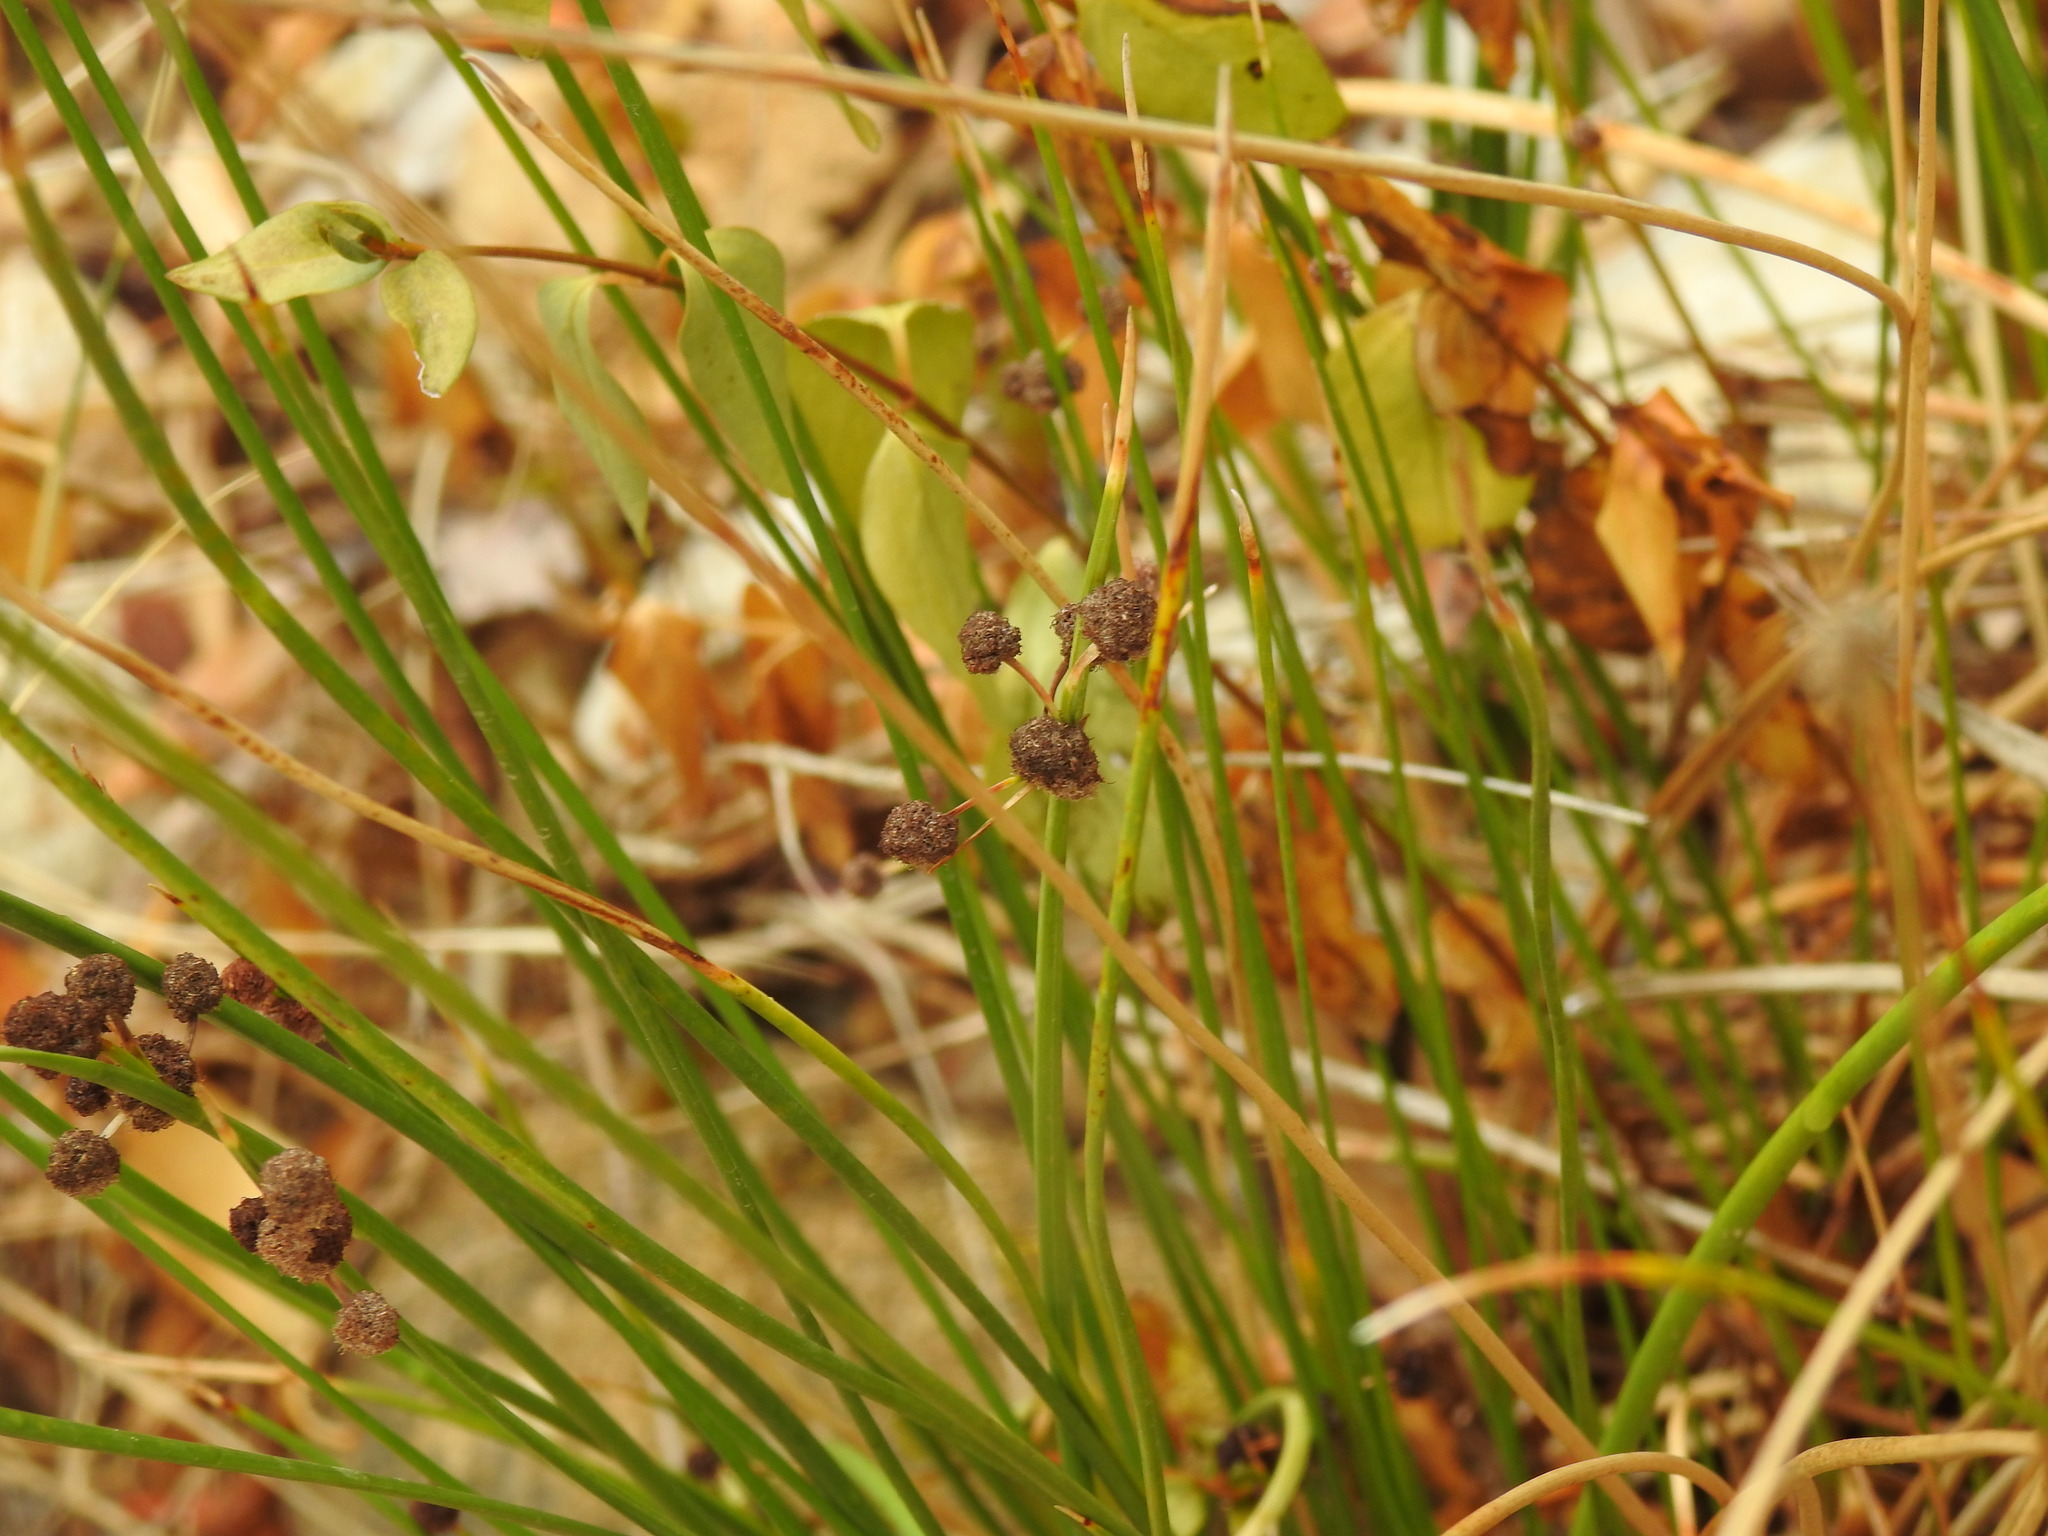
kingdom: Plantae
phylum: Tracheophyta
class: Liliopsida
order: Poales
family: Cyperaceae
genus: Scirpoides
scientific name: Scirpoides holoschoenus
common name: Round-headed club-rush
